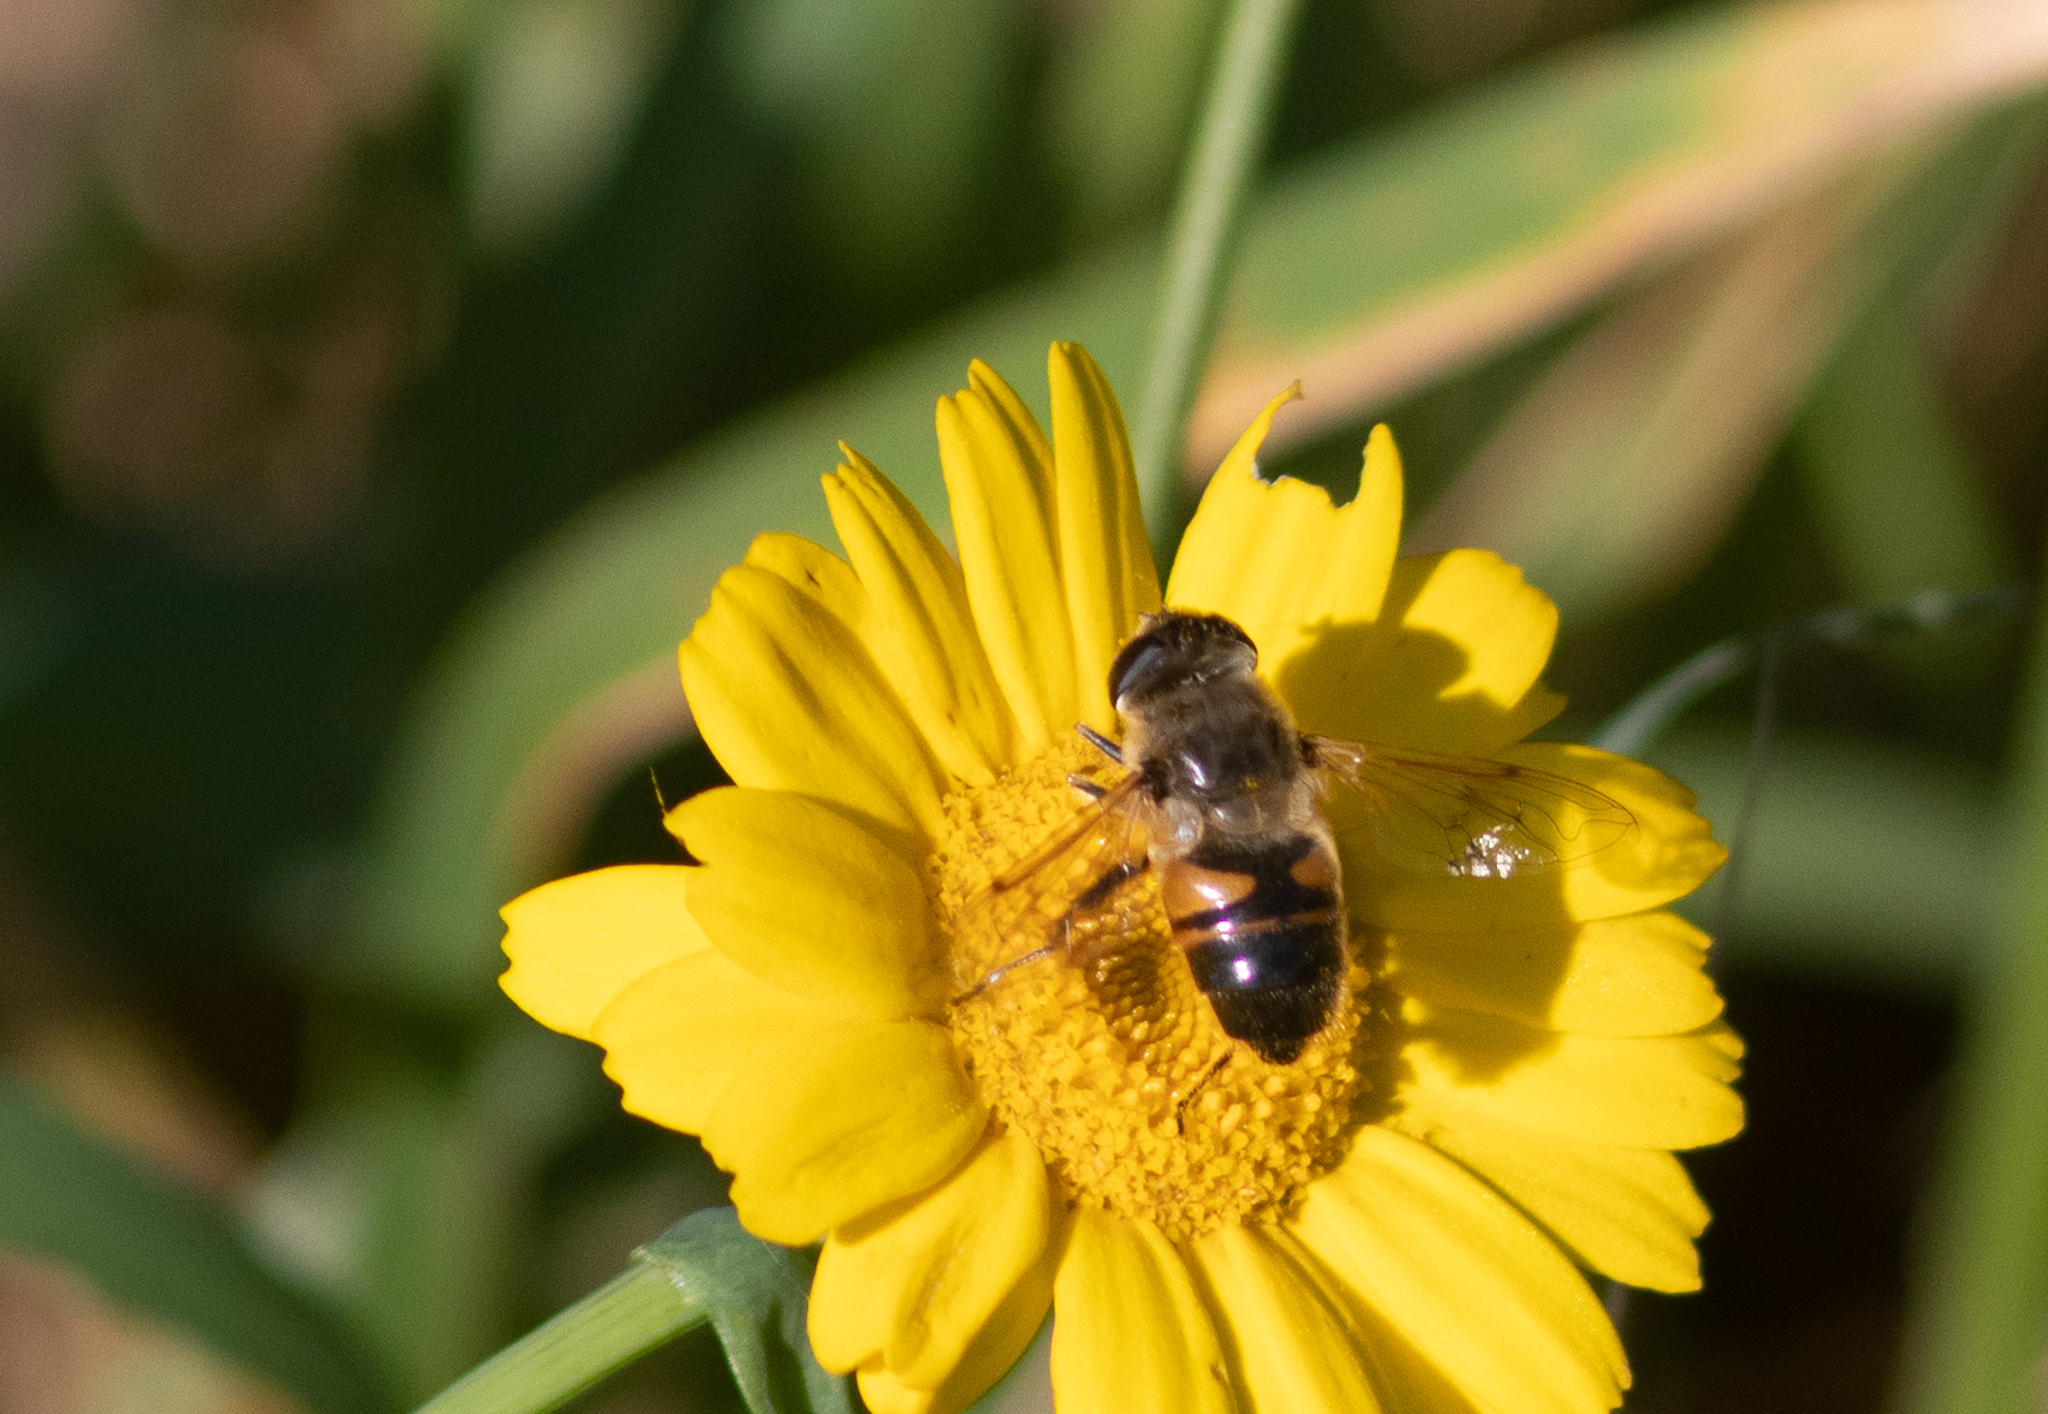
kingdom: Animalia
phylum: Arthropoda
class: Insecta
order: Diptera
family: Syrphidae
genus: Eristalis
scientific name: Eristalis tenax
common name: Drone fly
